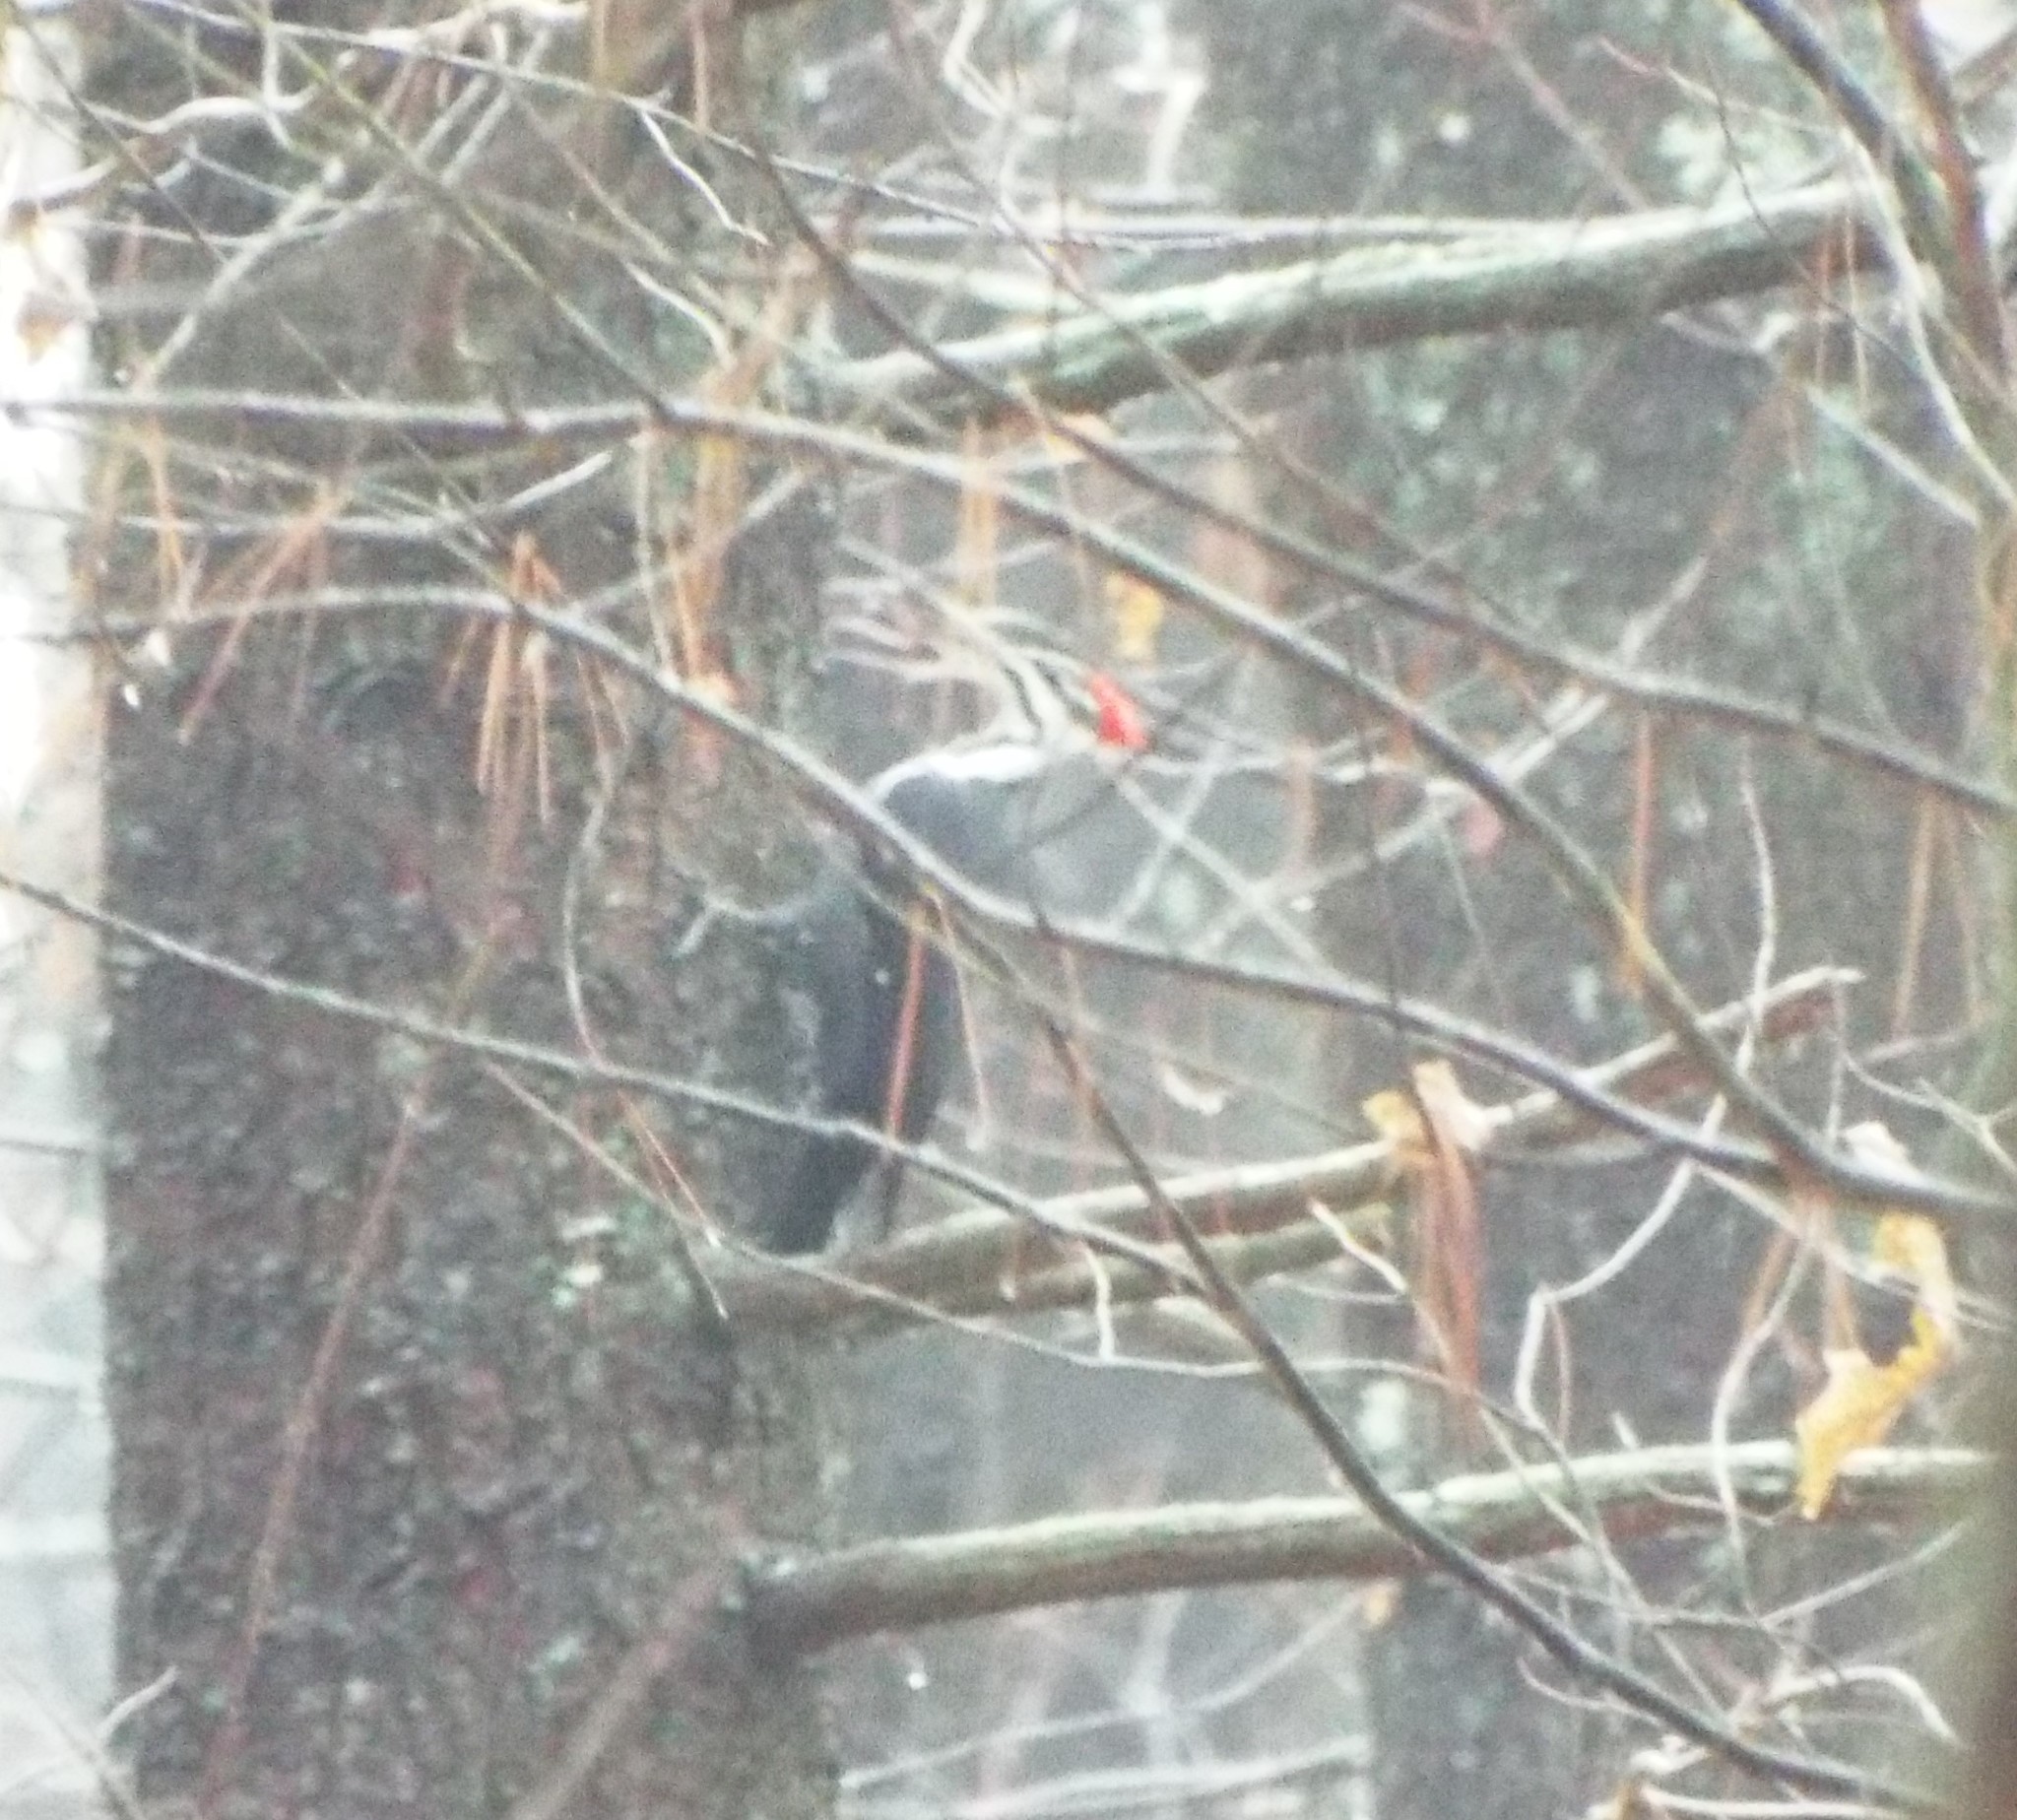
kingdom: Animalia
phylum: Chordata
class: Aves
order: Piciformes
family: Picidae
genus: Dryocopus
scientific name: Dryocopus pileatus
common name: Pileated woodpecker
